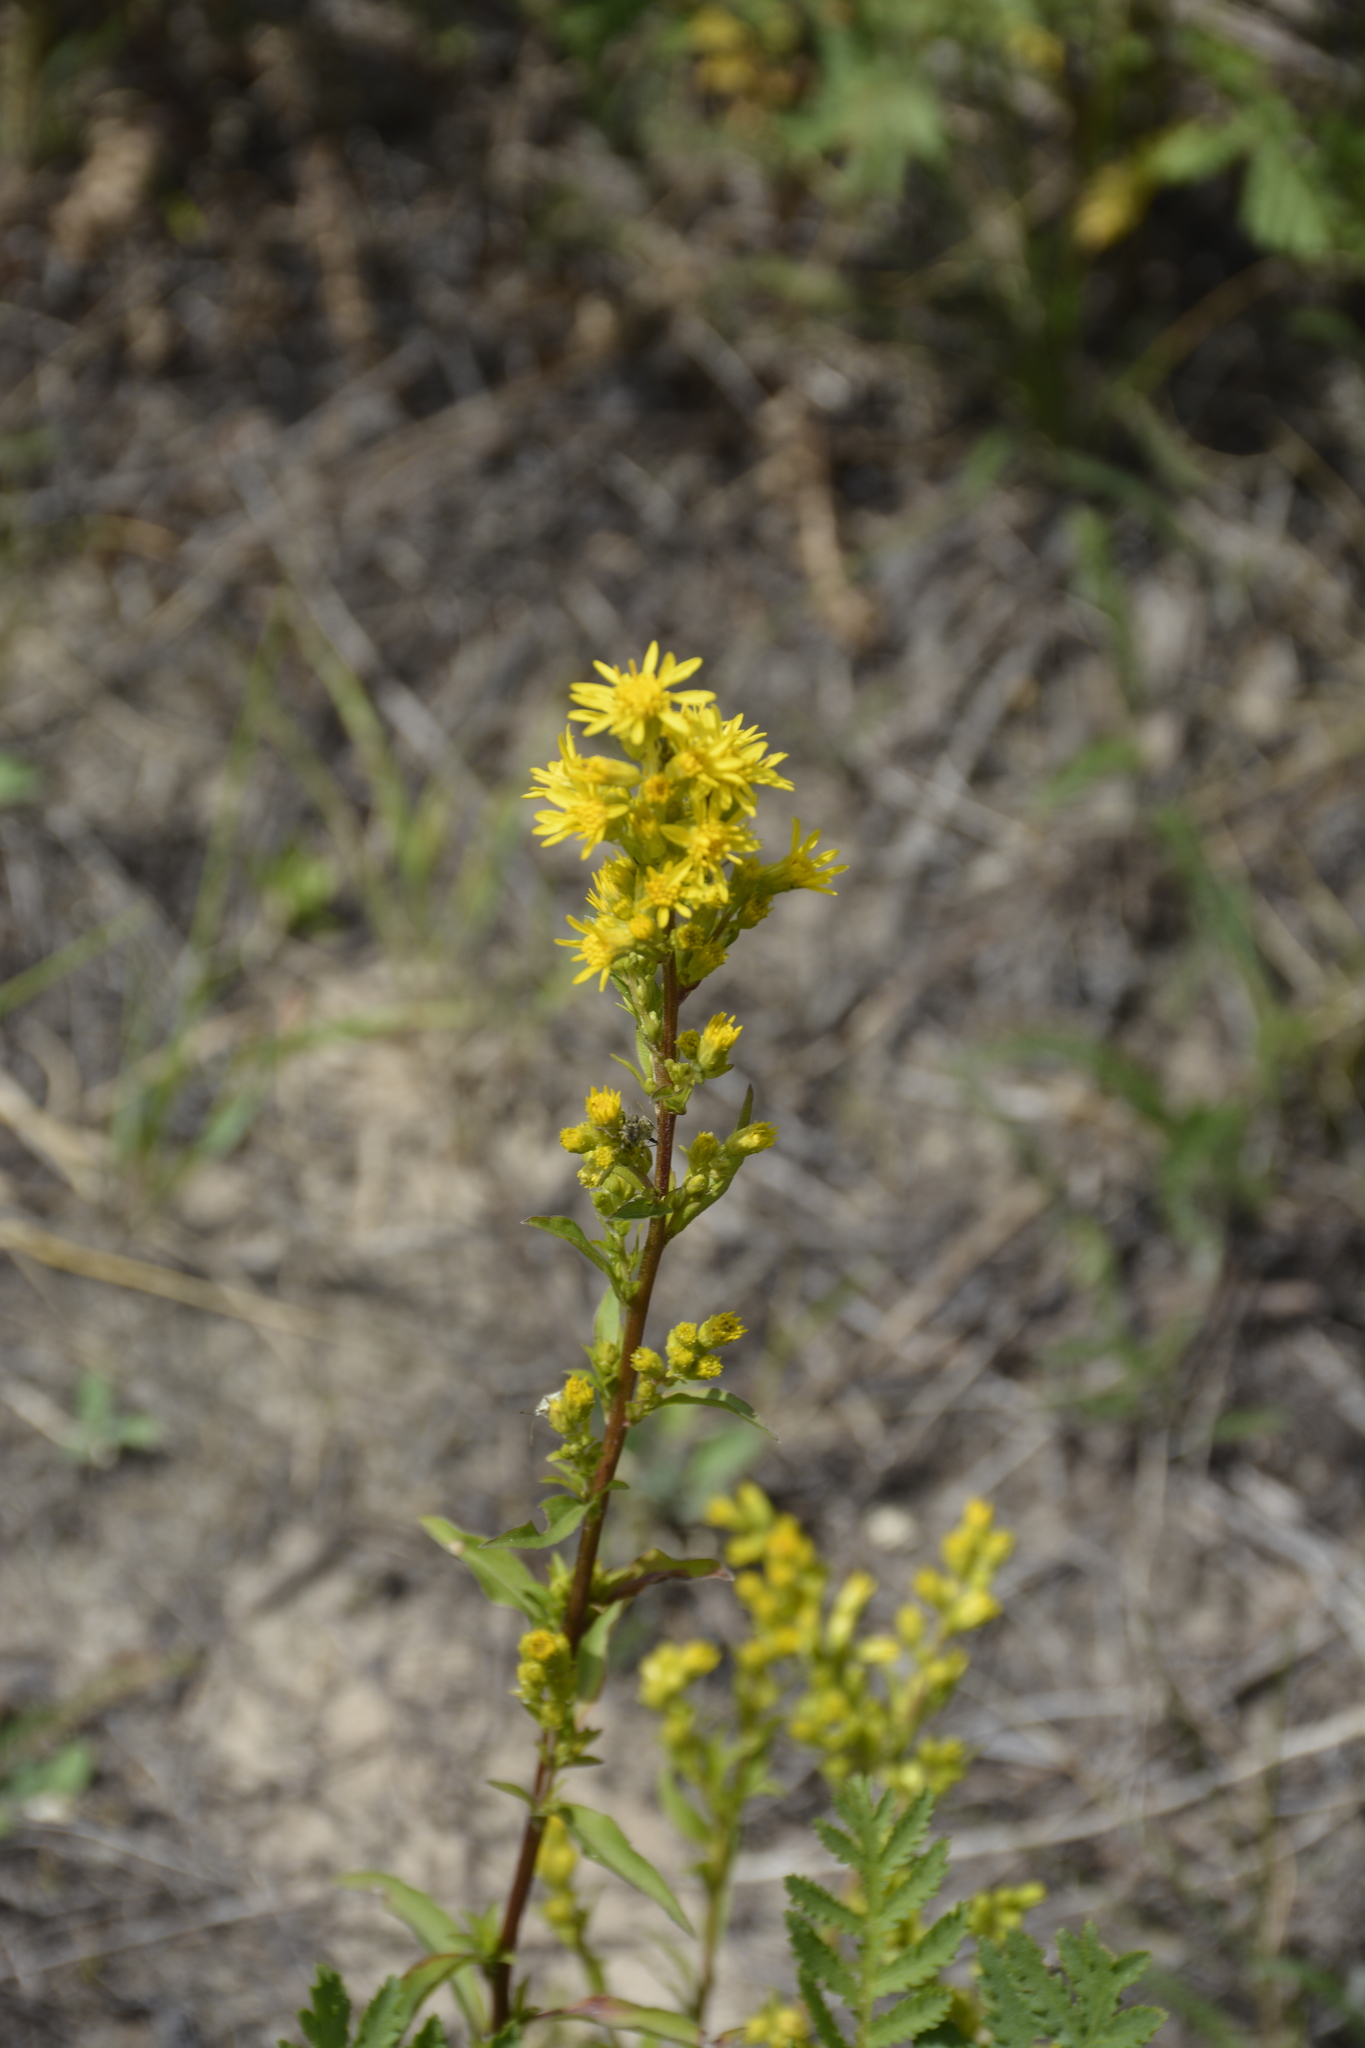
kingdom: Plantae
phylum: Tracheophyta
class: Magnoliopsida
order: Asterales
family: Asteraceae
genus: Solidago
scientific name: Solidago virgaurea
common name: Goldenrod
